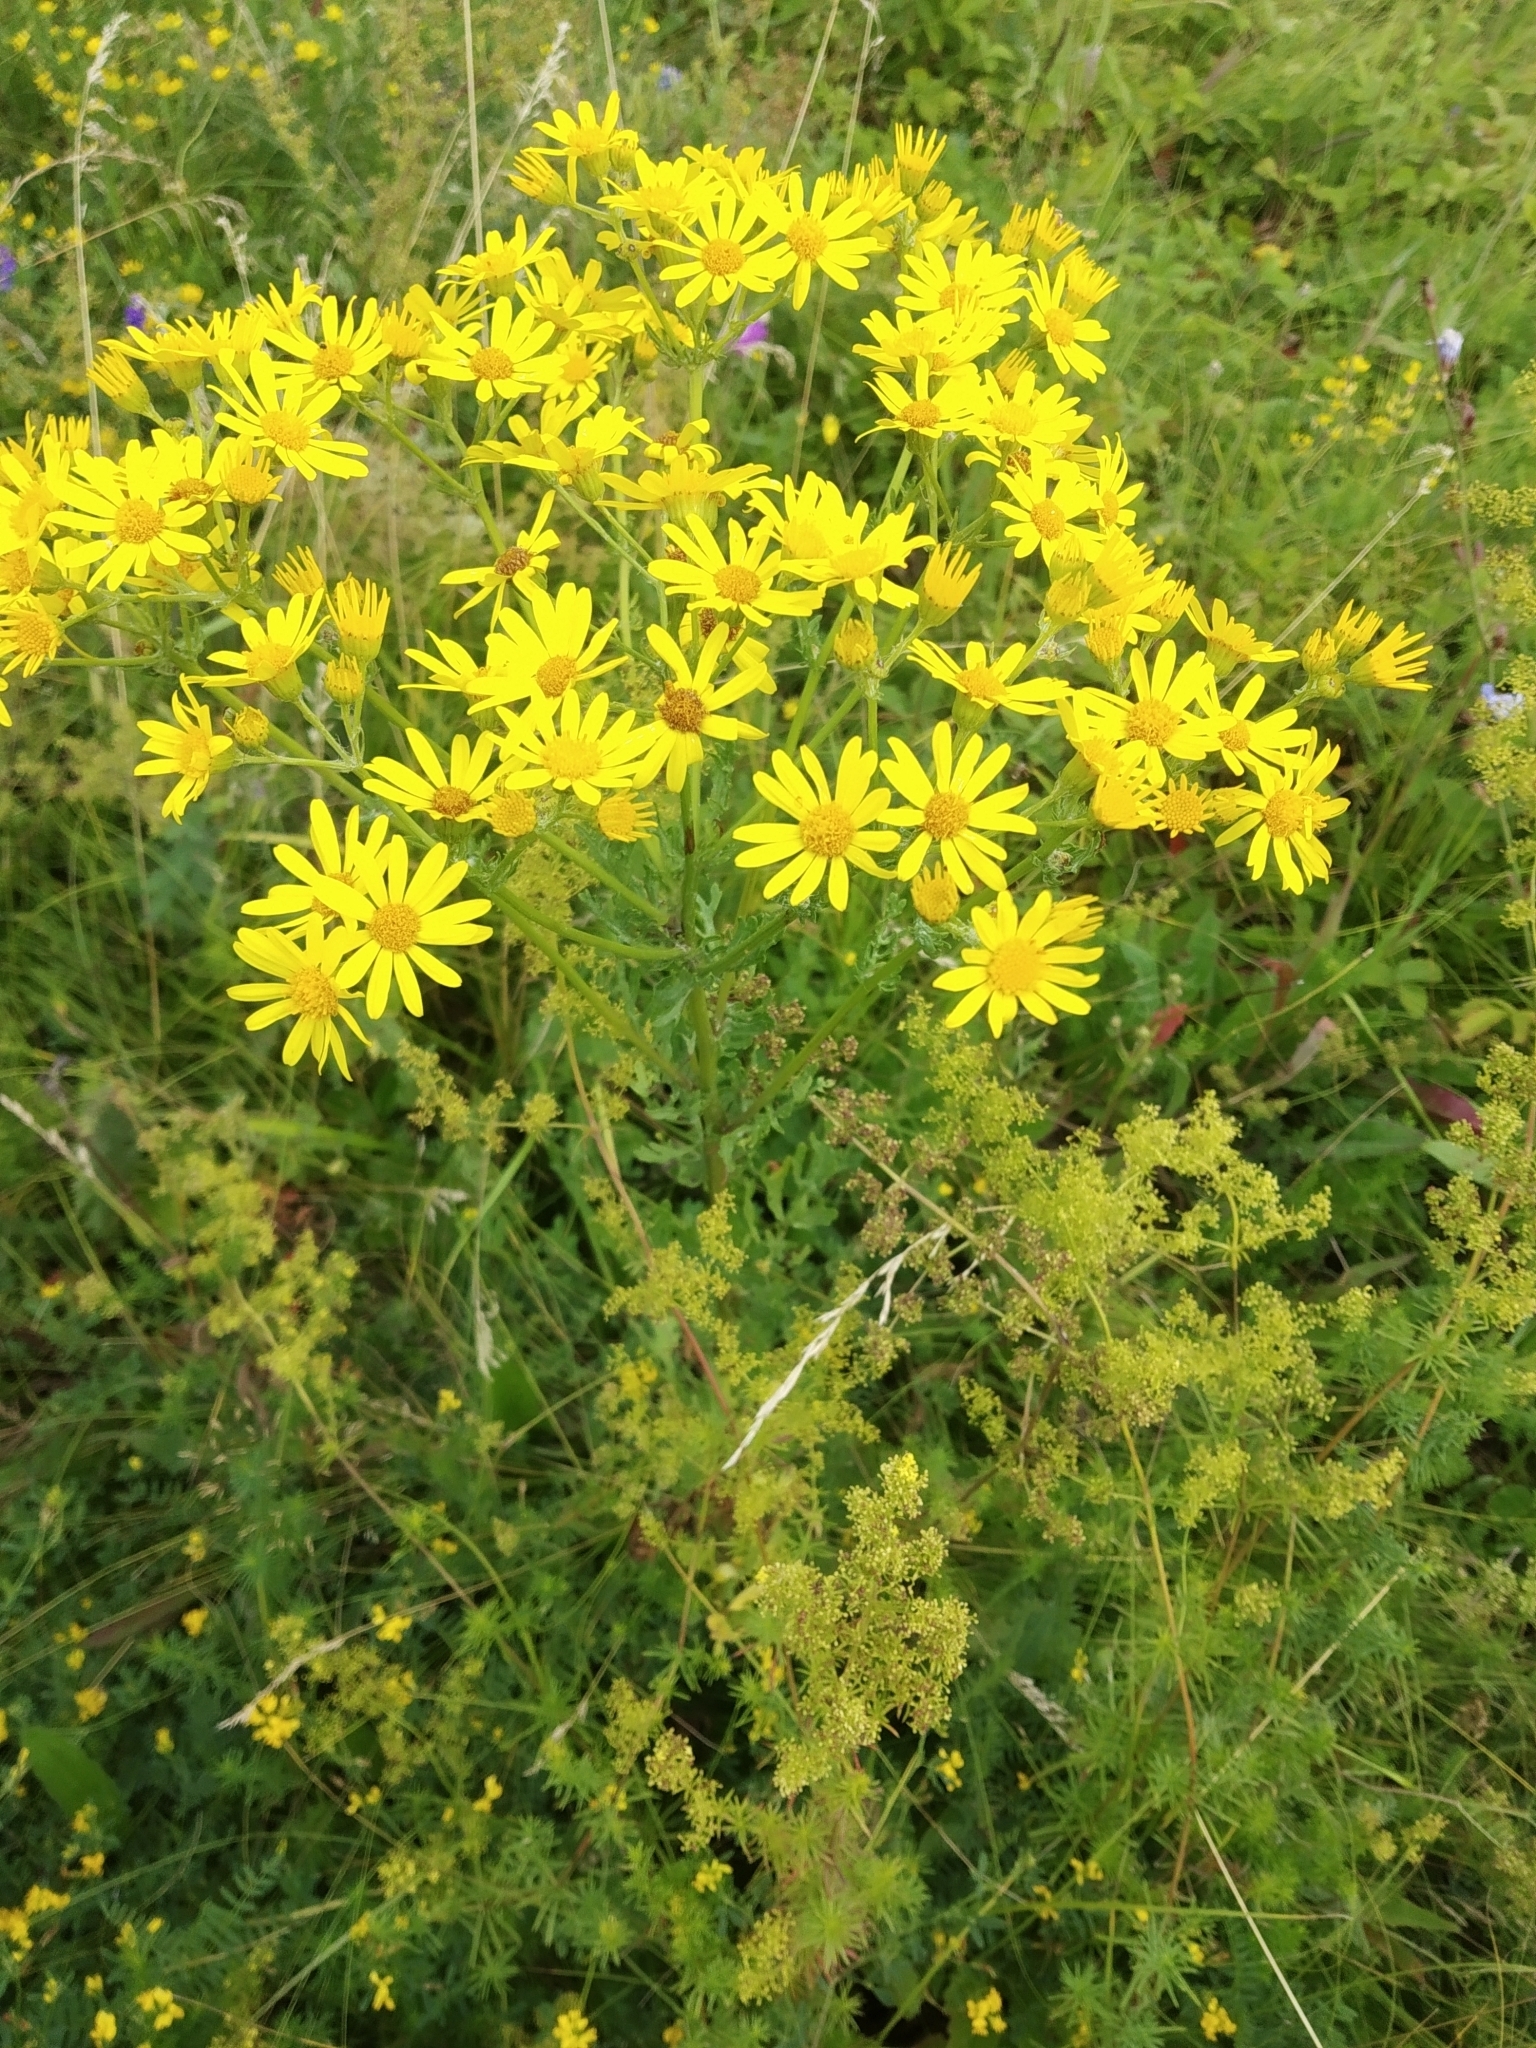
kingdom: Plantae
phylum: Tracheophyta
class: Magnoliopsida
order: Asterales
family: Asteraceae
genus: Jacobaea
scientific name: Jacobaea vulgaris
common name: Stinking willie
